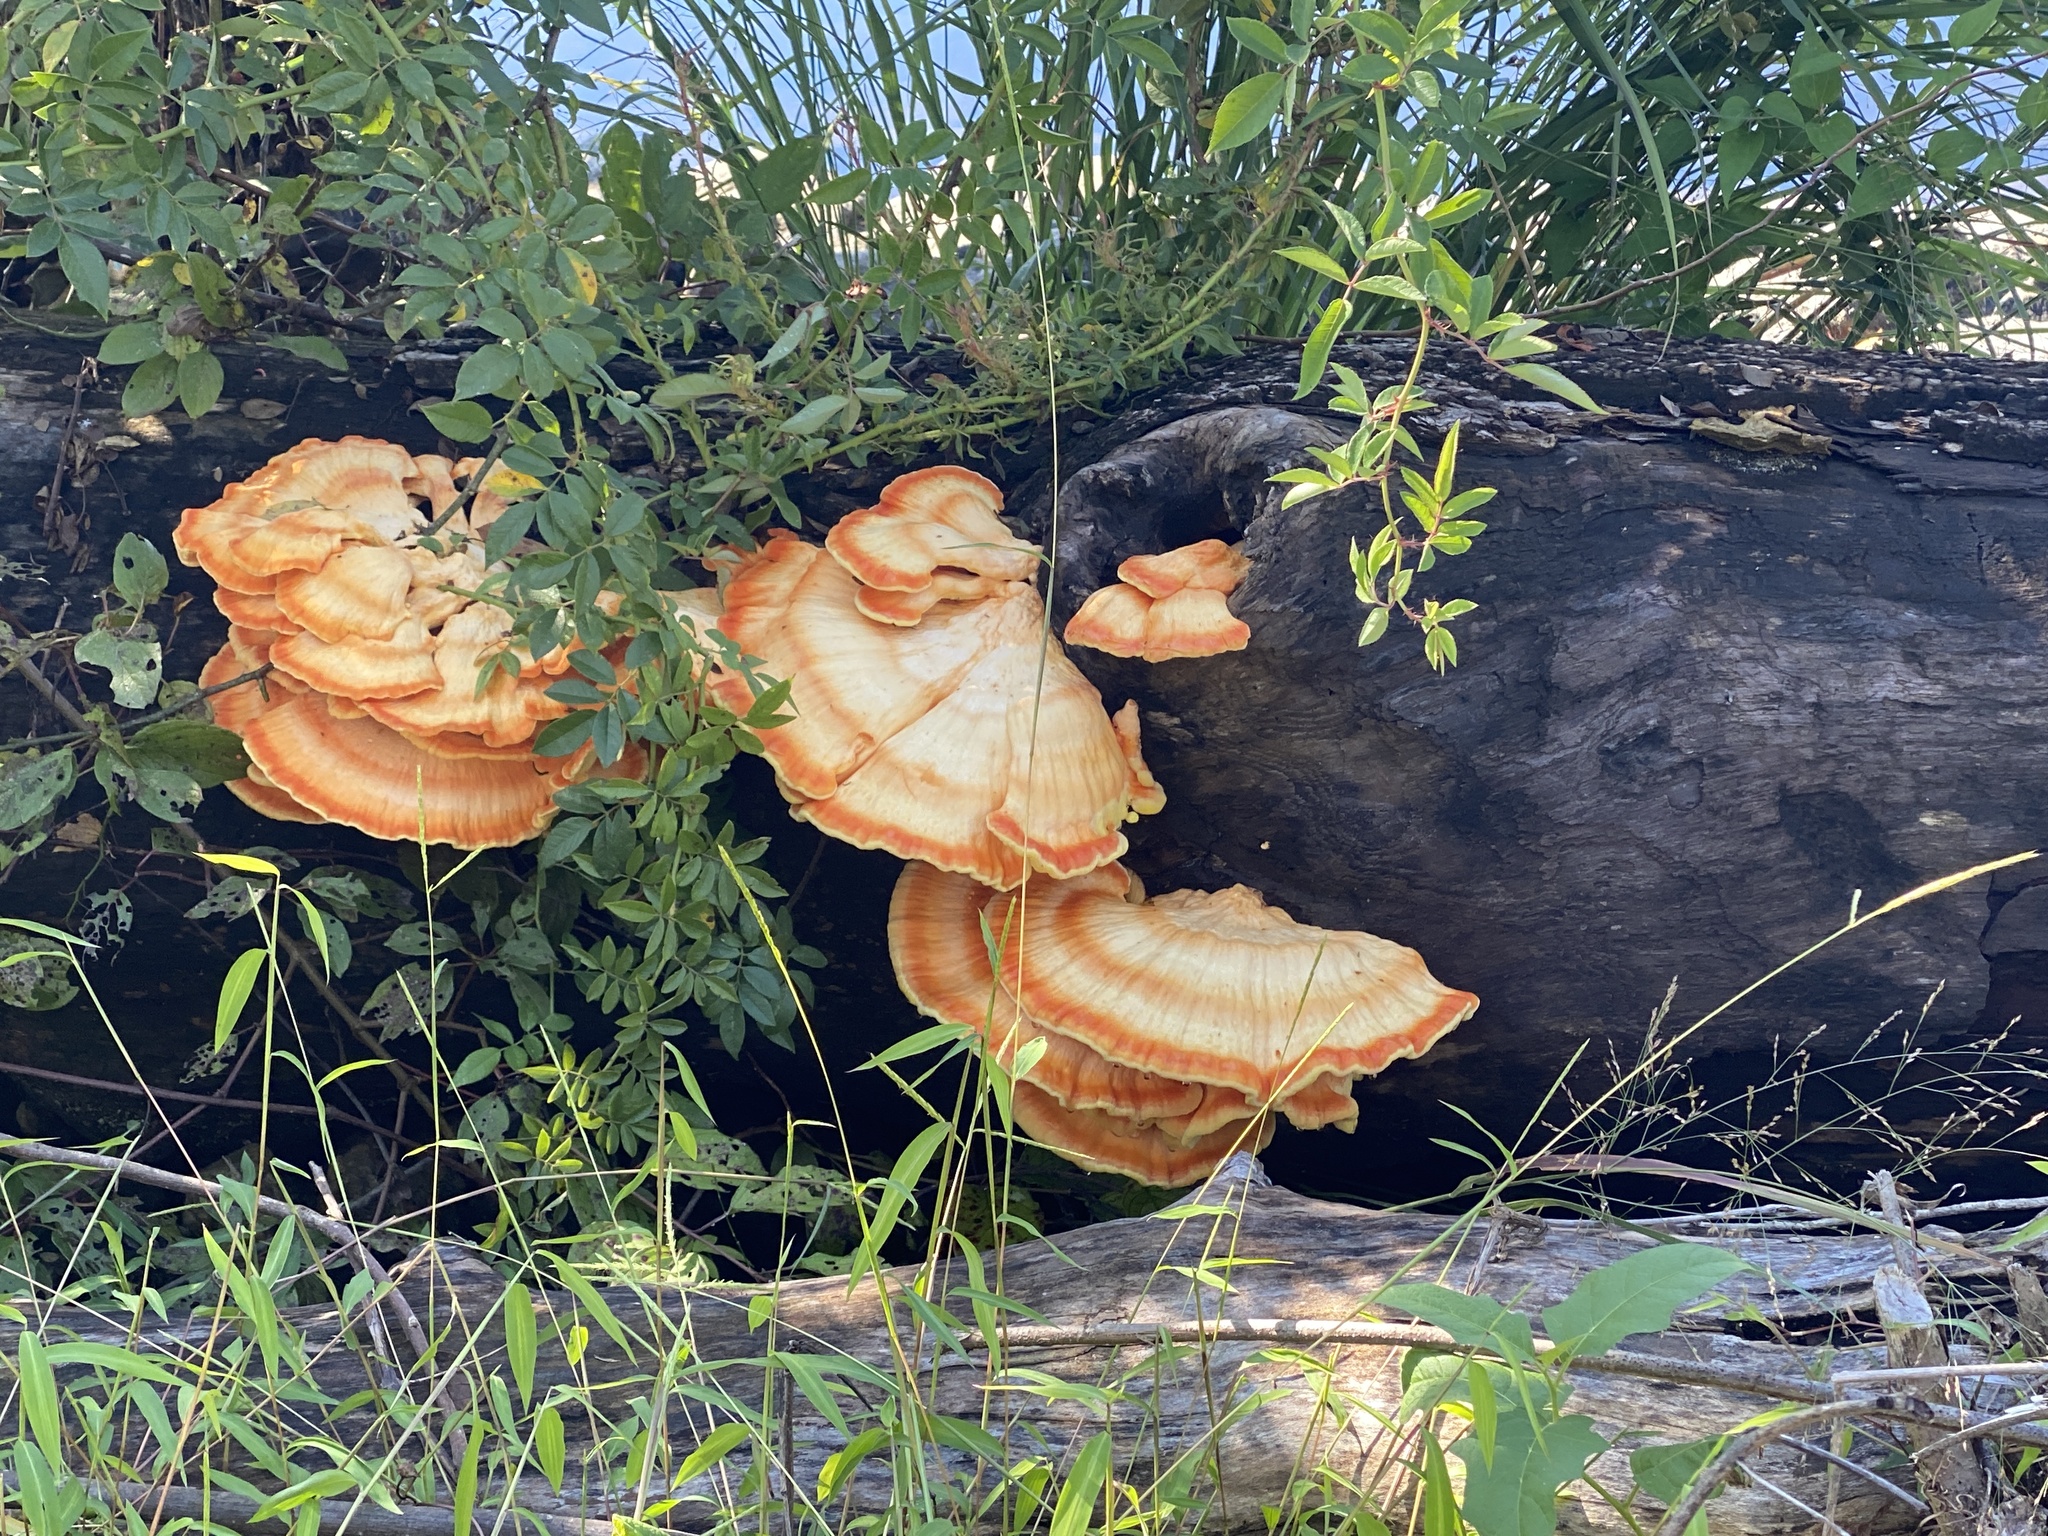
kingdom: Fungi
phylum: Basidiomycota
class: Agaricomycetes
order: Polyporales
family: Laetiporaceae
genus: Laetiporus
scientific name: Laetiporus sulphureus
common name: Chicken of the woods
